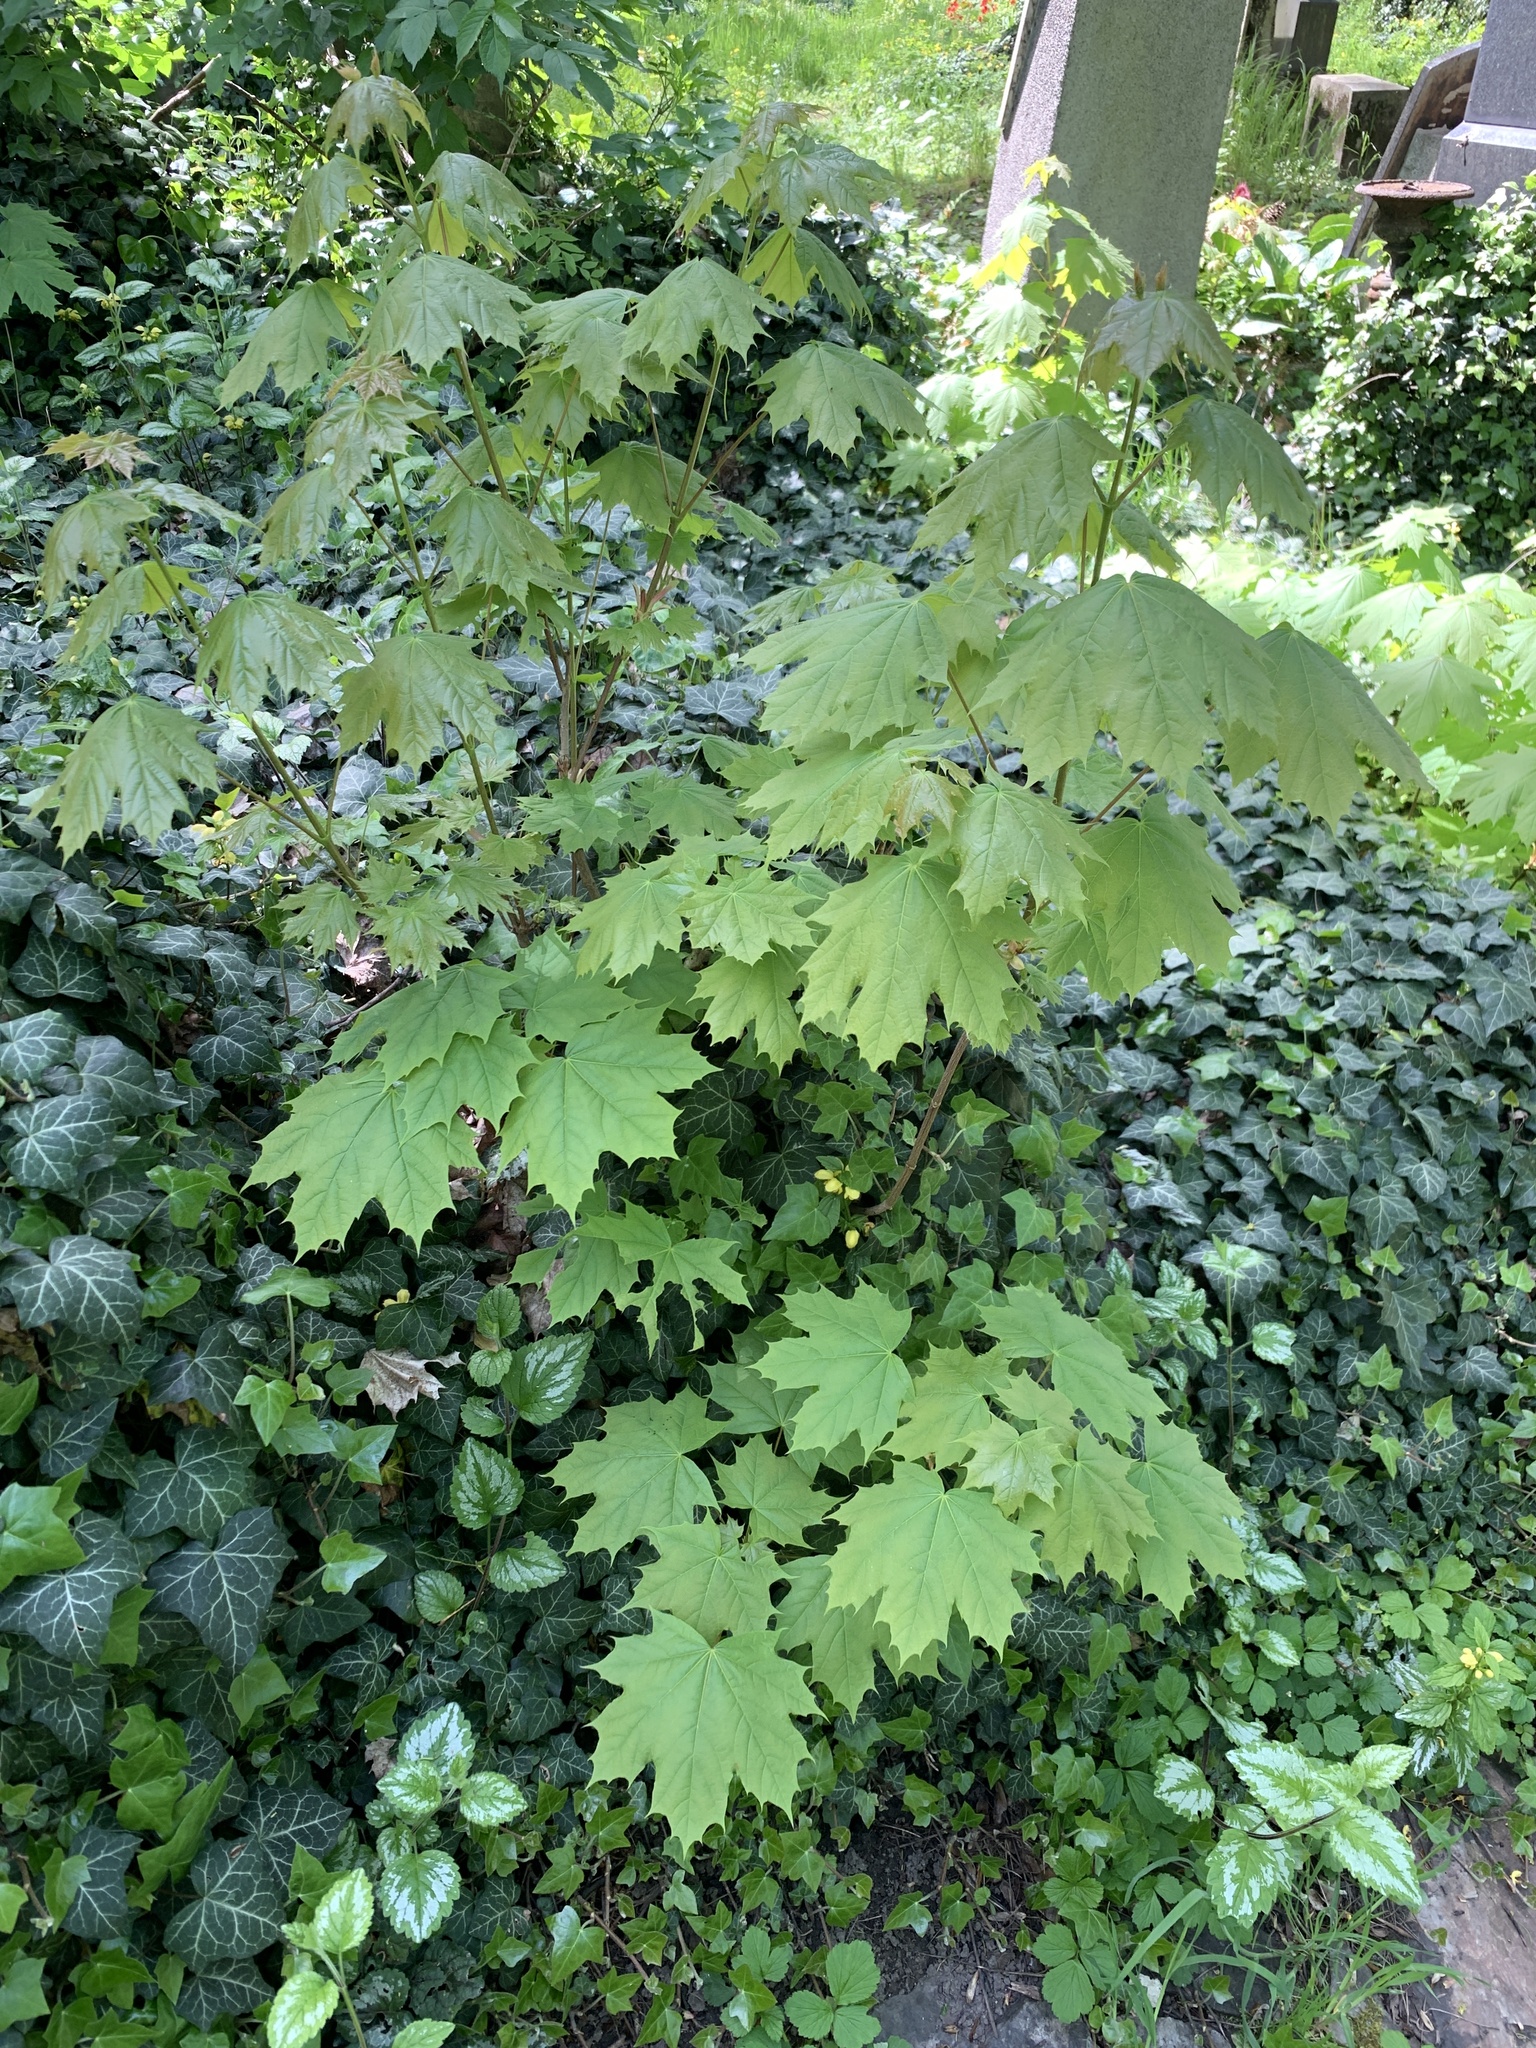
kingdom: Plantae
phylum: Tracheophyta
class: Magnoliopsida
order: Sapindales
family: Sapindaceae
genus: Acer
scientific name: Acer platanoides
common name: Norway maple
